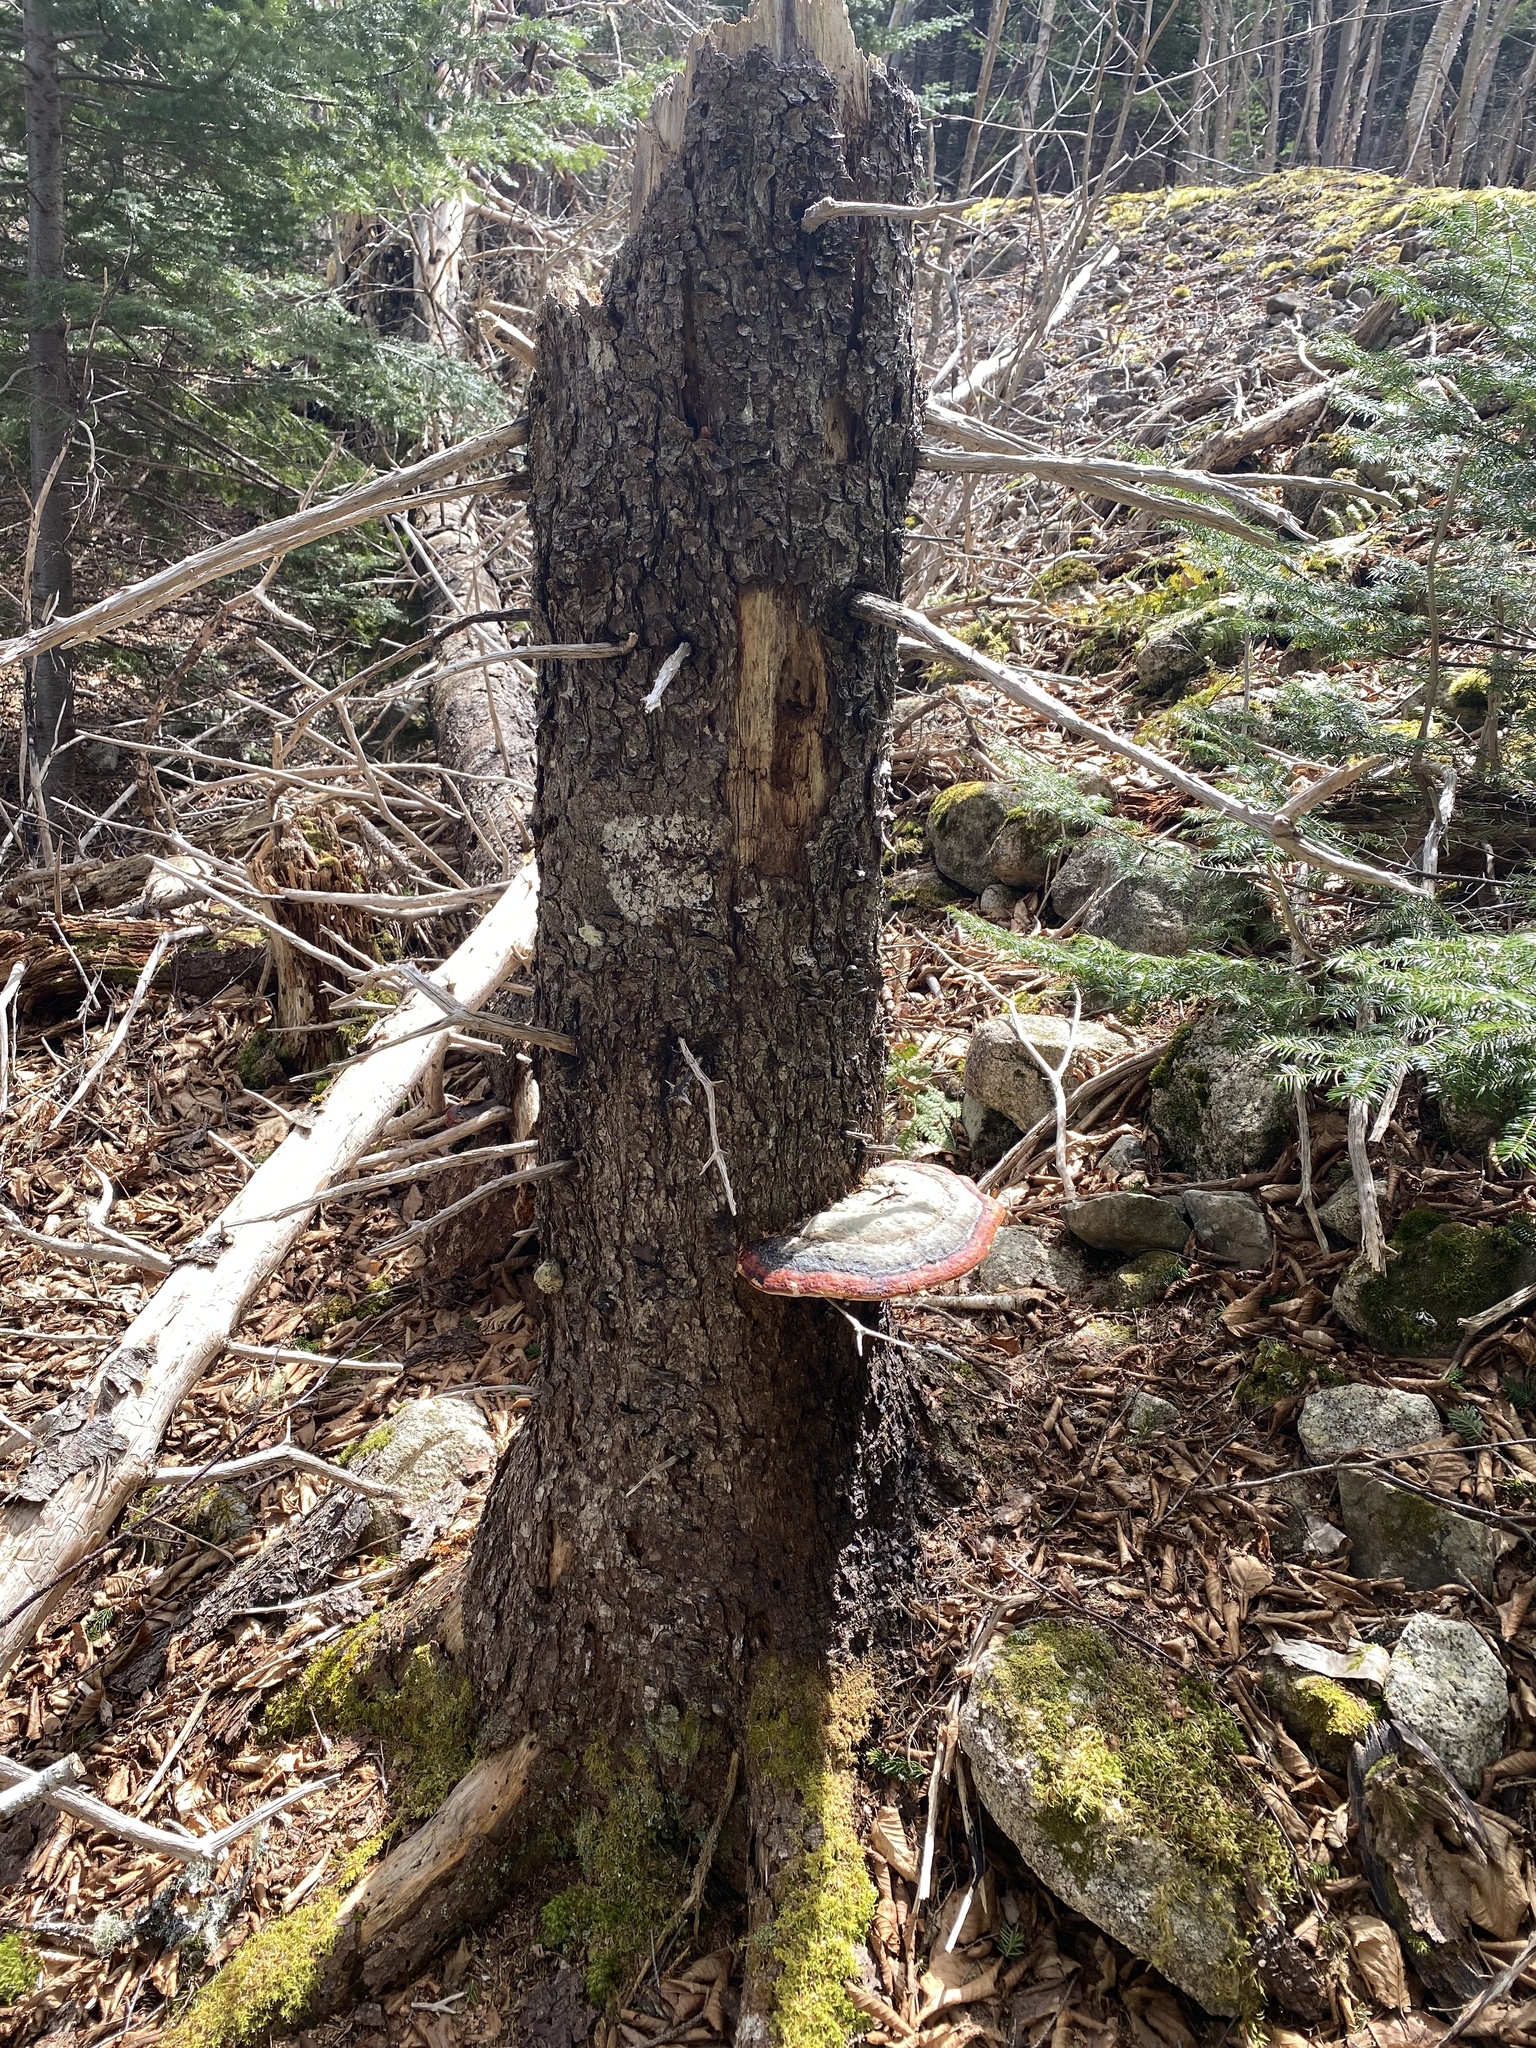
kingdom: Fungi
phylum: Basidiomycota
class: Agaricomycetes
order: Polyporales
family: Fomitopsidaceae
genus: Fomitopsis
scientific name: Fomitopsis mounceae
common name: Northern red belt
